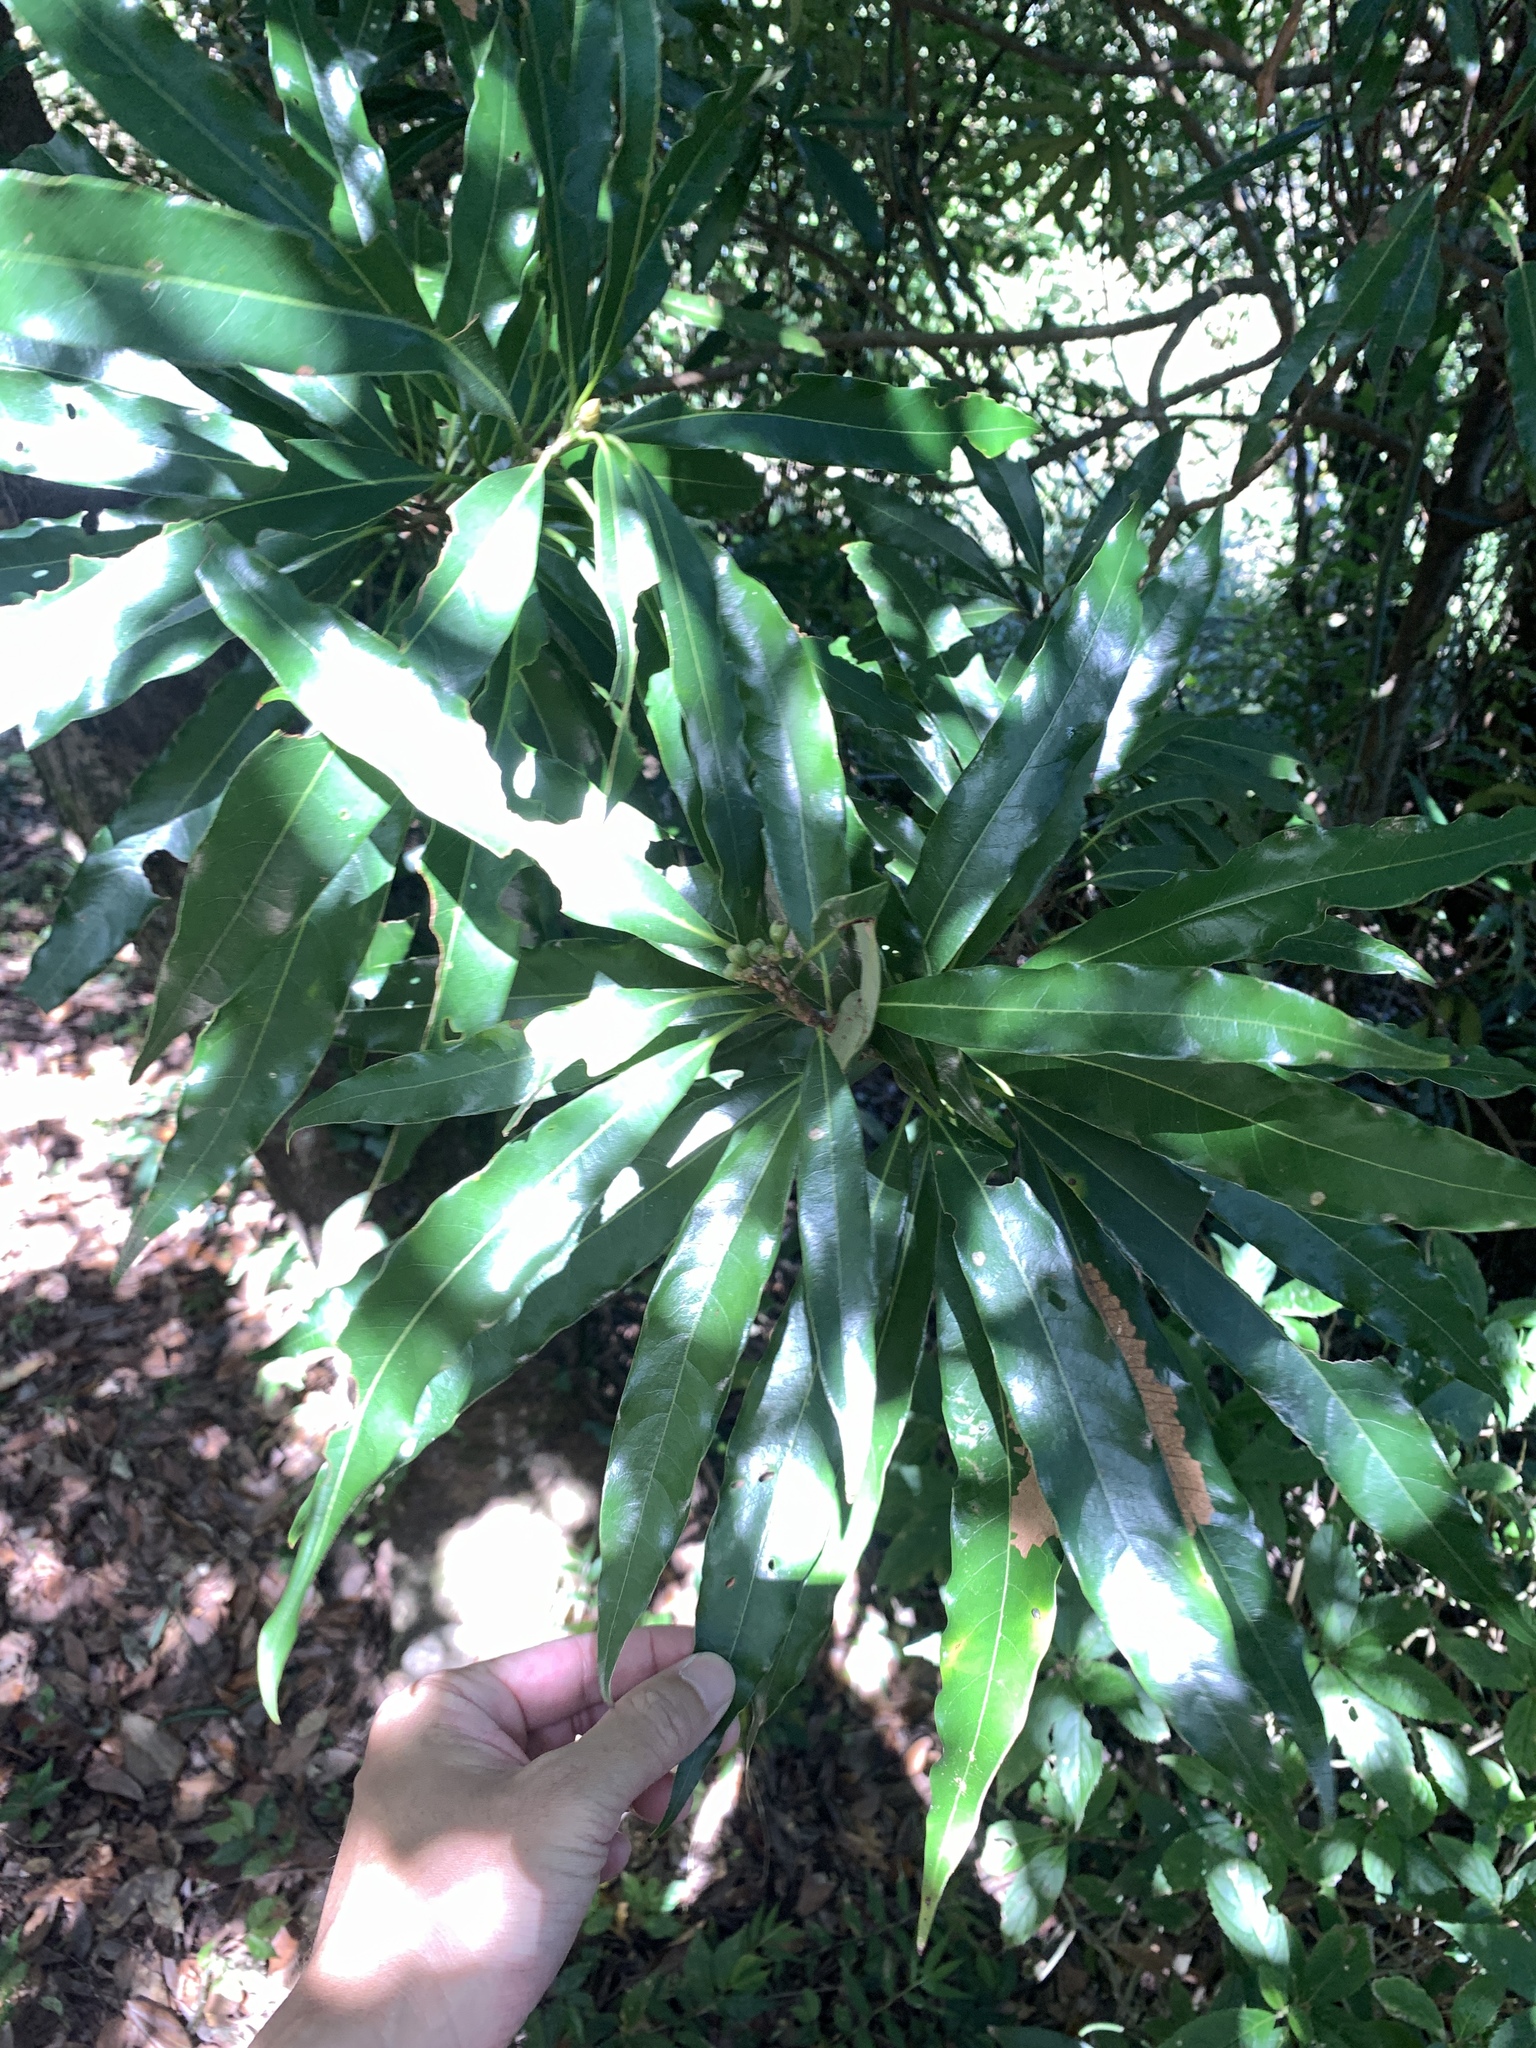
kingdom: Plantae
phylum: Tracheophyta
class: Magnoliopsida
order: Laurales
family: Lauraceae
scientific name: Lauraceae
